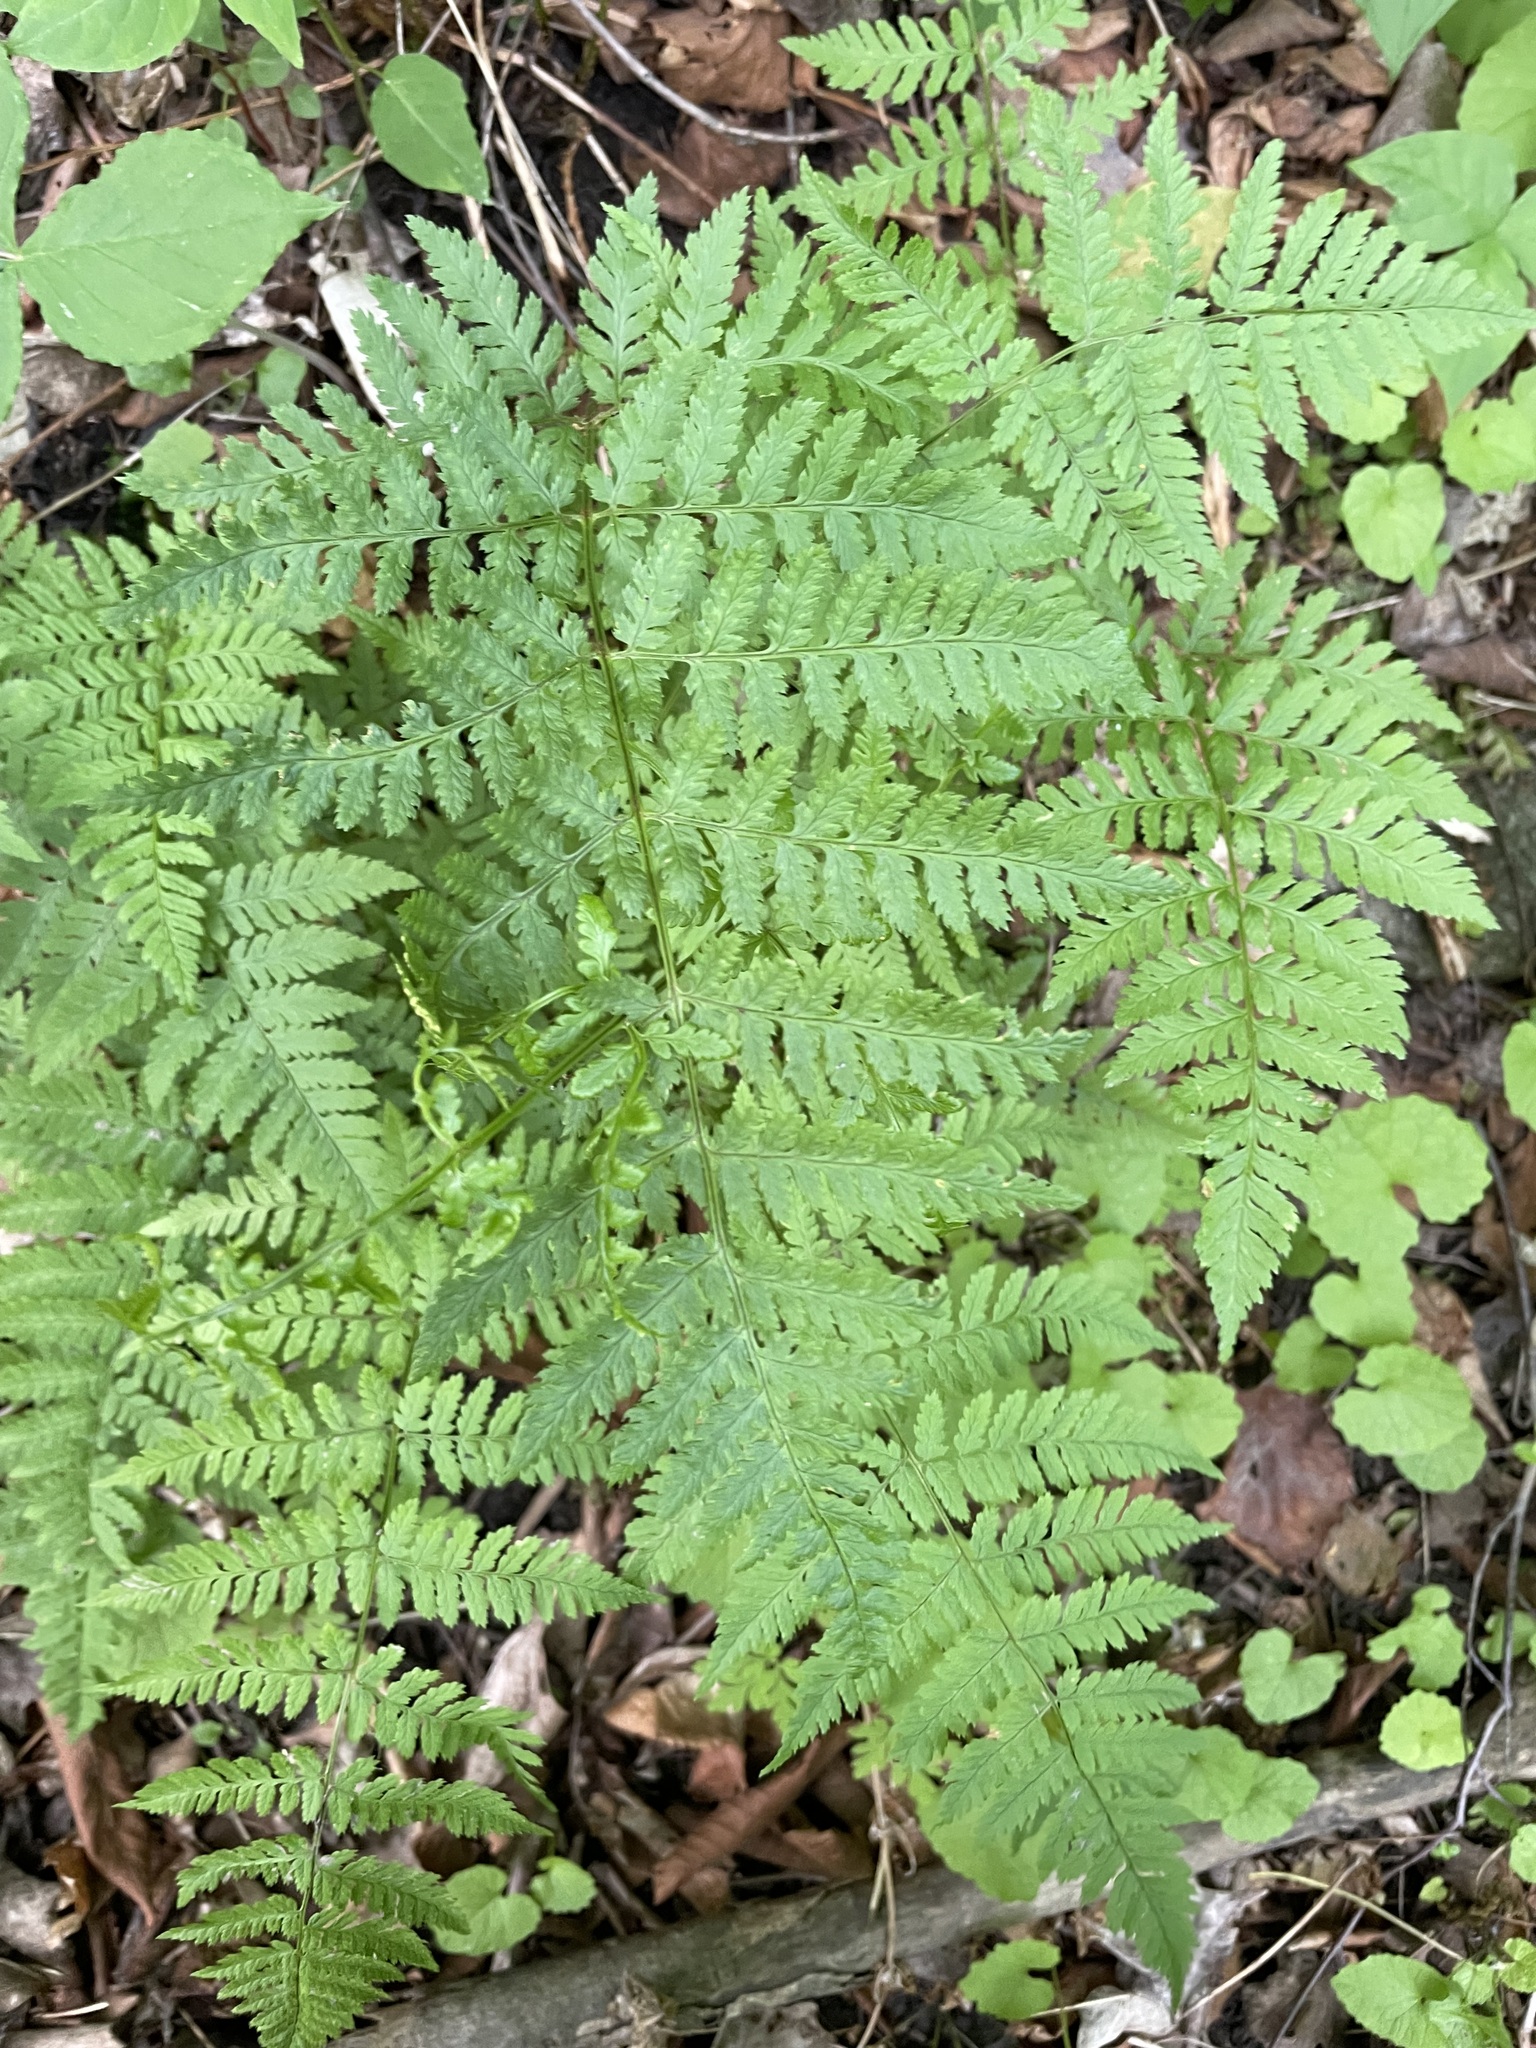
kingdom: Plantae
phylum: Tracheophyta
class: Polypodiopsida
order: Polypodiales
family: Dryopteridaceae
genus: Dryopteris
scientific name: Dryopteris carthusiana
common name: Narrow buckler-fern
